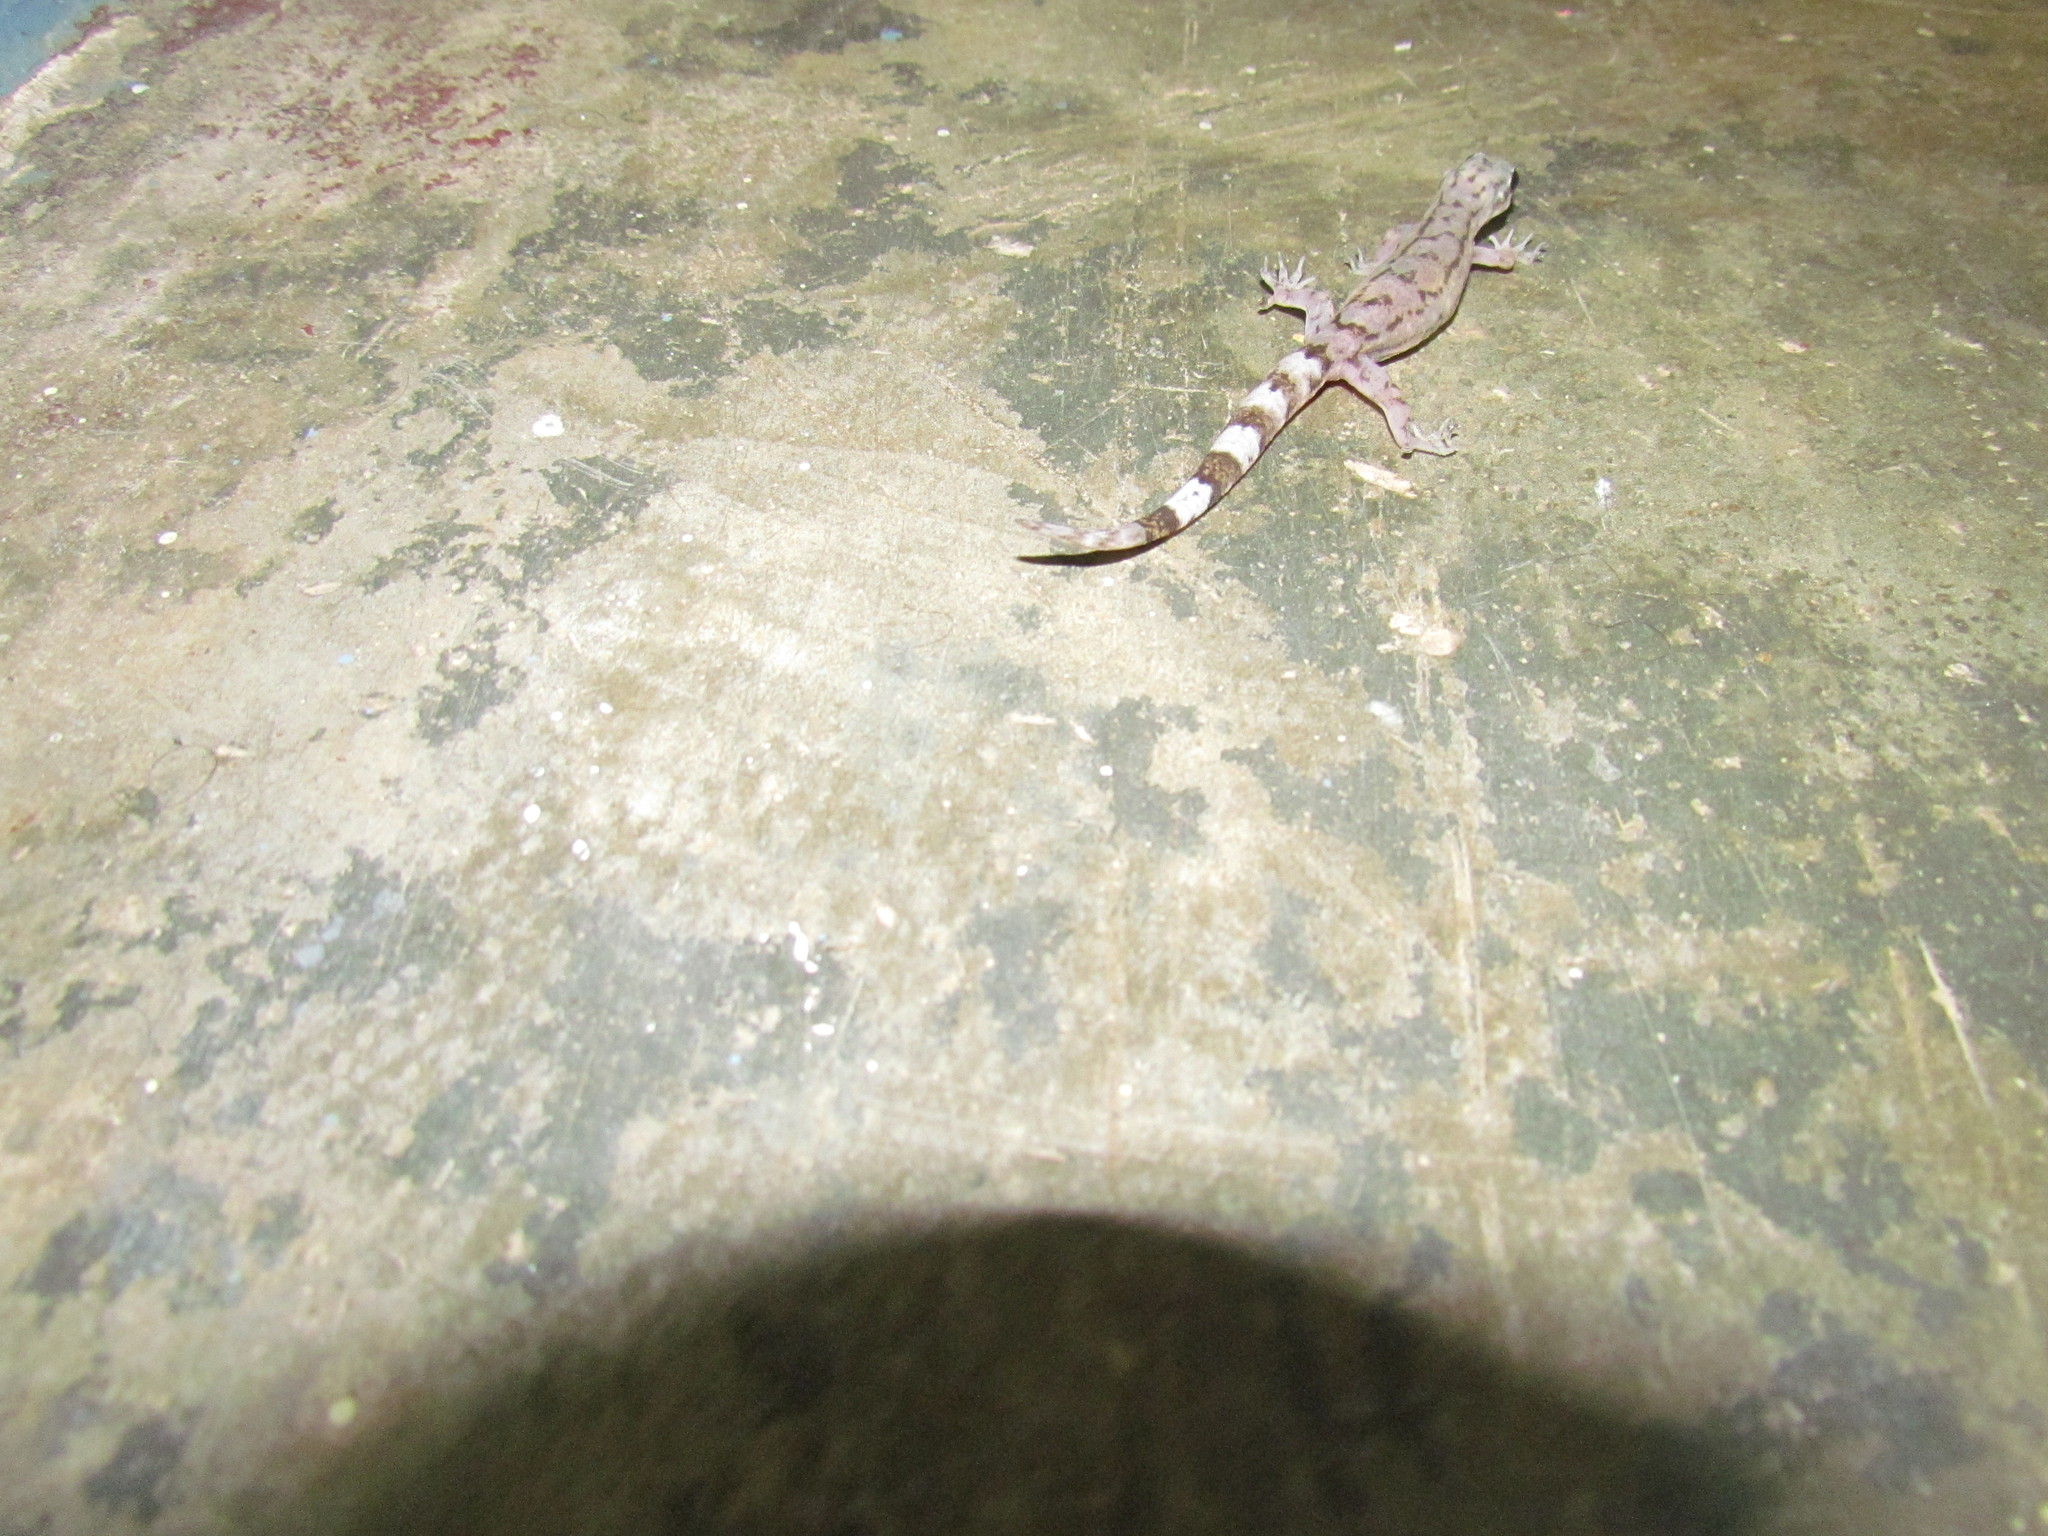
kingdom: Animalia
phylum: Chordata
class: Squamata
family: Gekkonidae
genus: Dravidogecko
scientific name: Dravidogecko anamallensis
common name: Anaimalai dravidogecko
